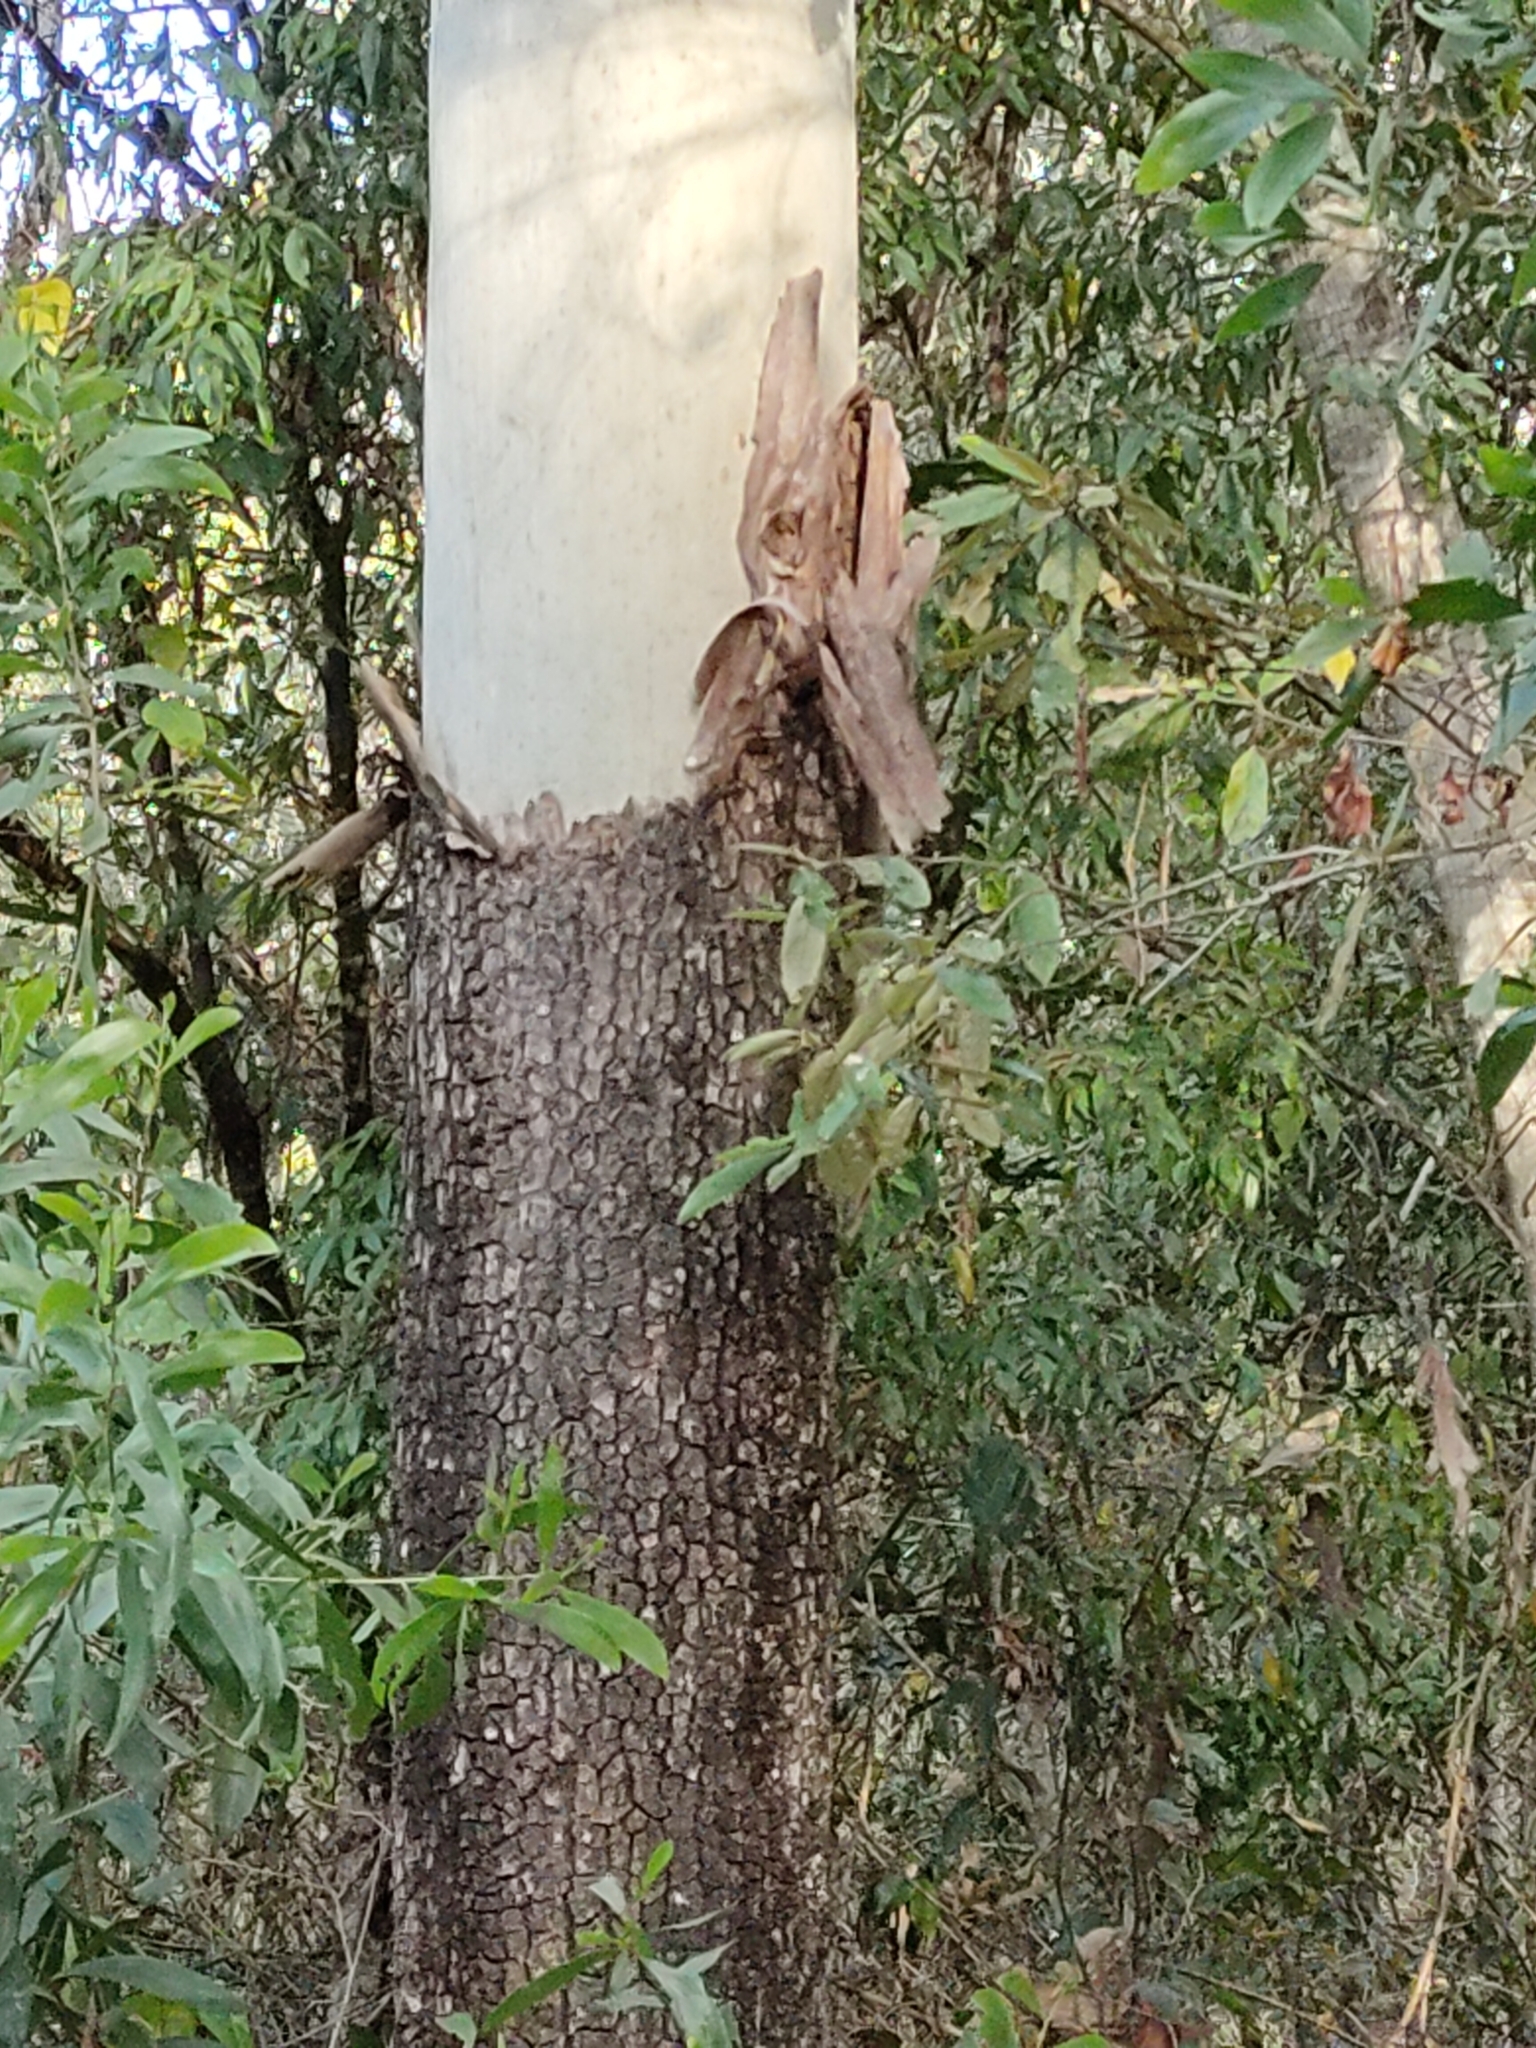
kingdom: Plantae
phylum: Tracheophyta
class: Magnoliopsida
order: Myrtales
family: Myrtaceae
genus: Corymbia
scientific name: Corymbia tessellaris
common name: Carbeen
